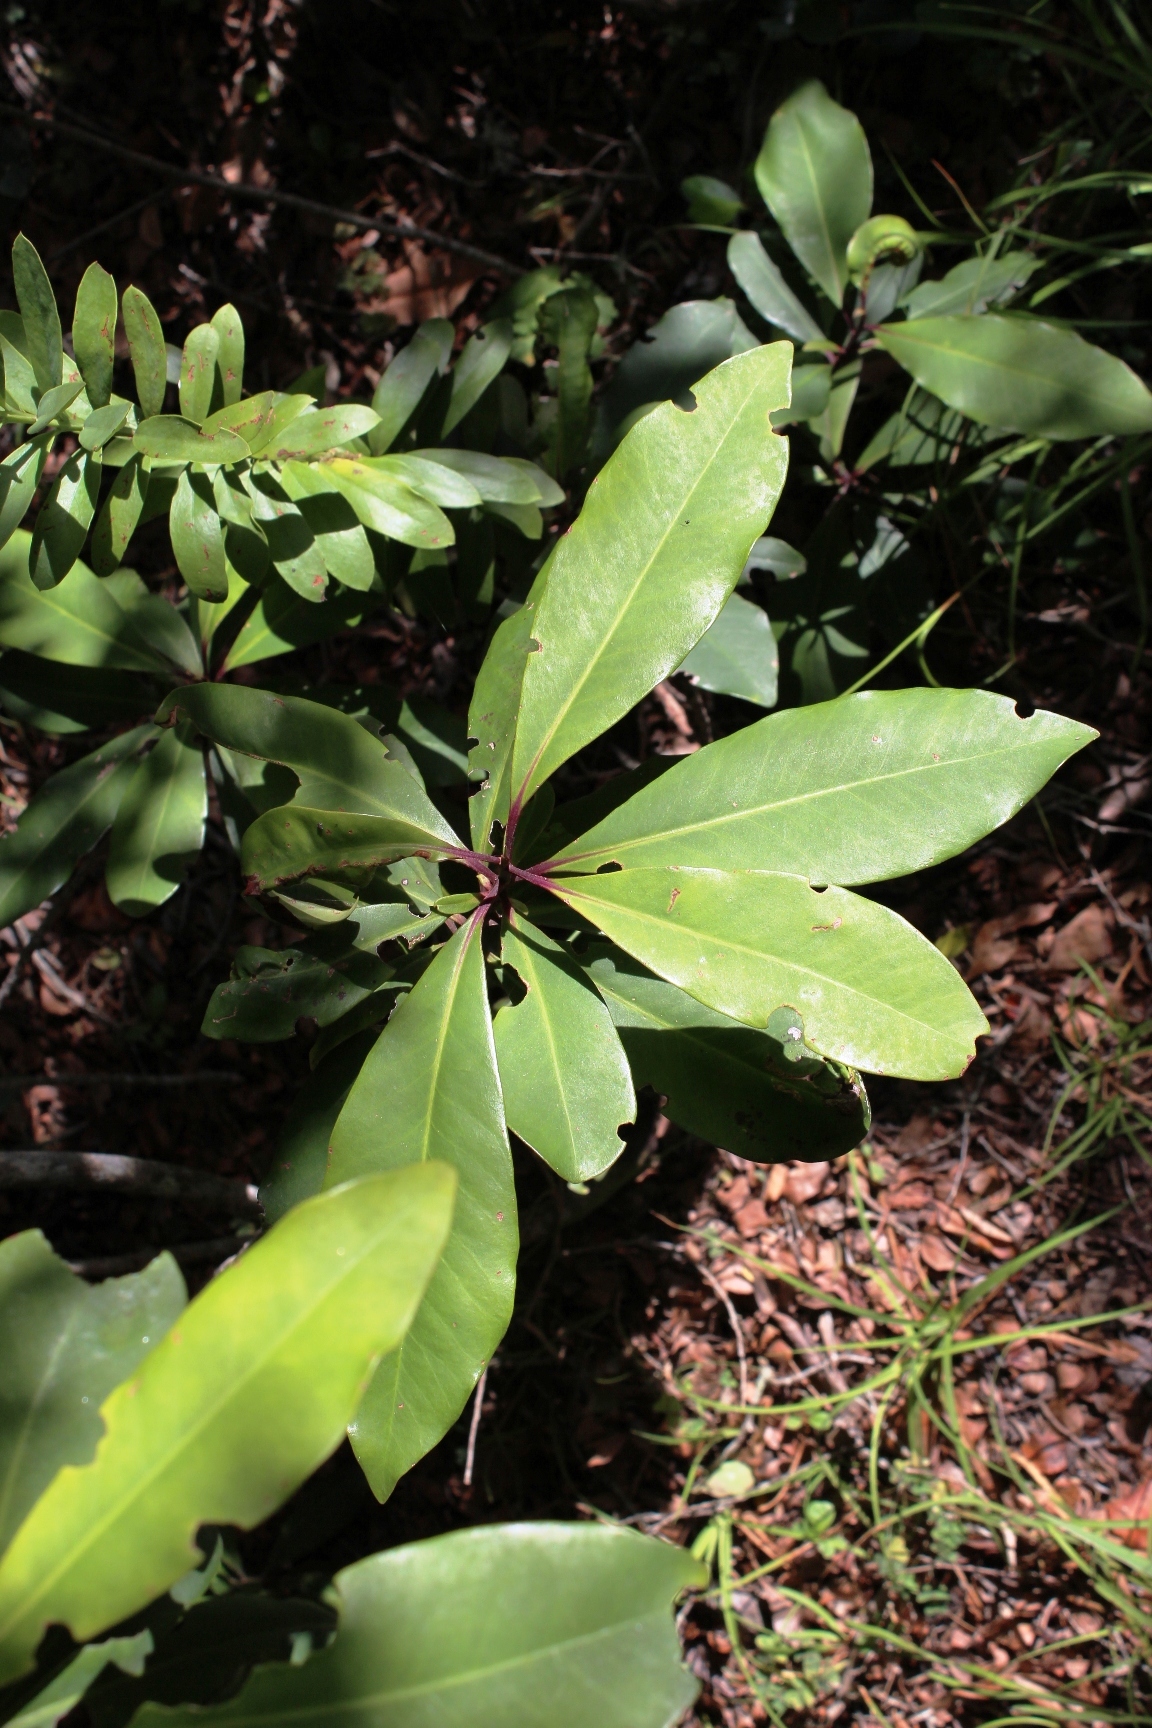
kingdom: Plantae
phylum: Tracheophyta
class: Magnoliopsida
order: Ericales
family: Primulaceae
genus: Myrsine
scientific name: Myrsine melanophloeos
